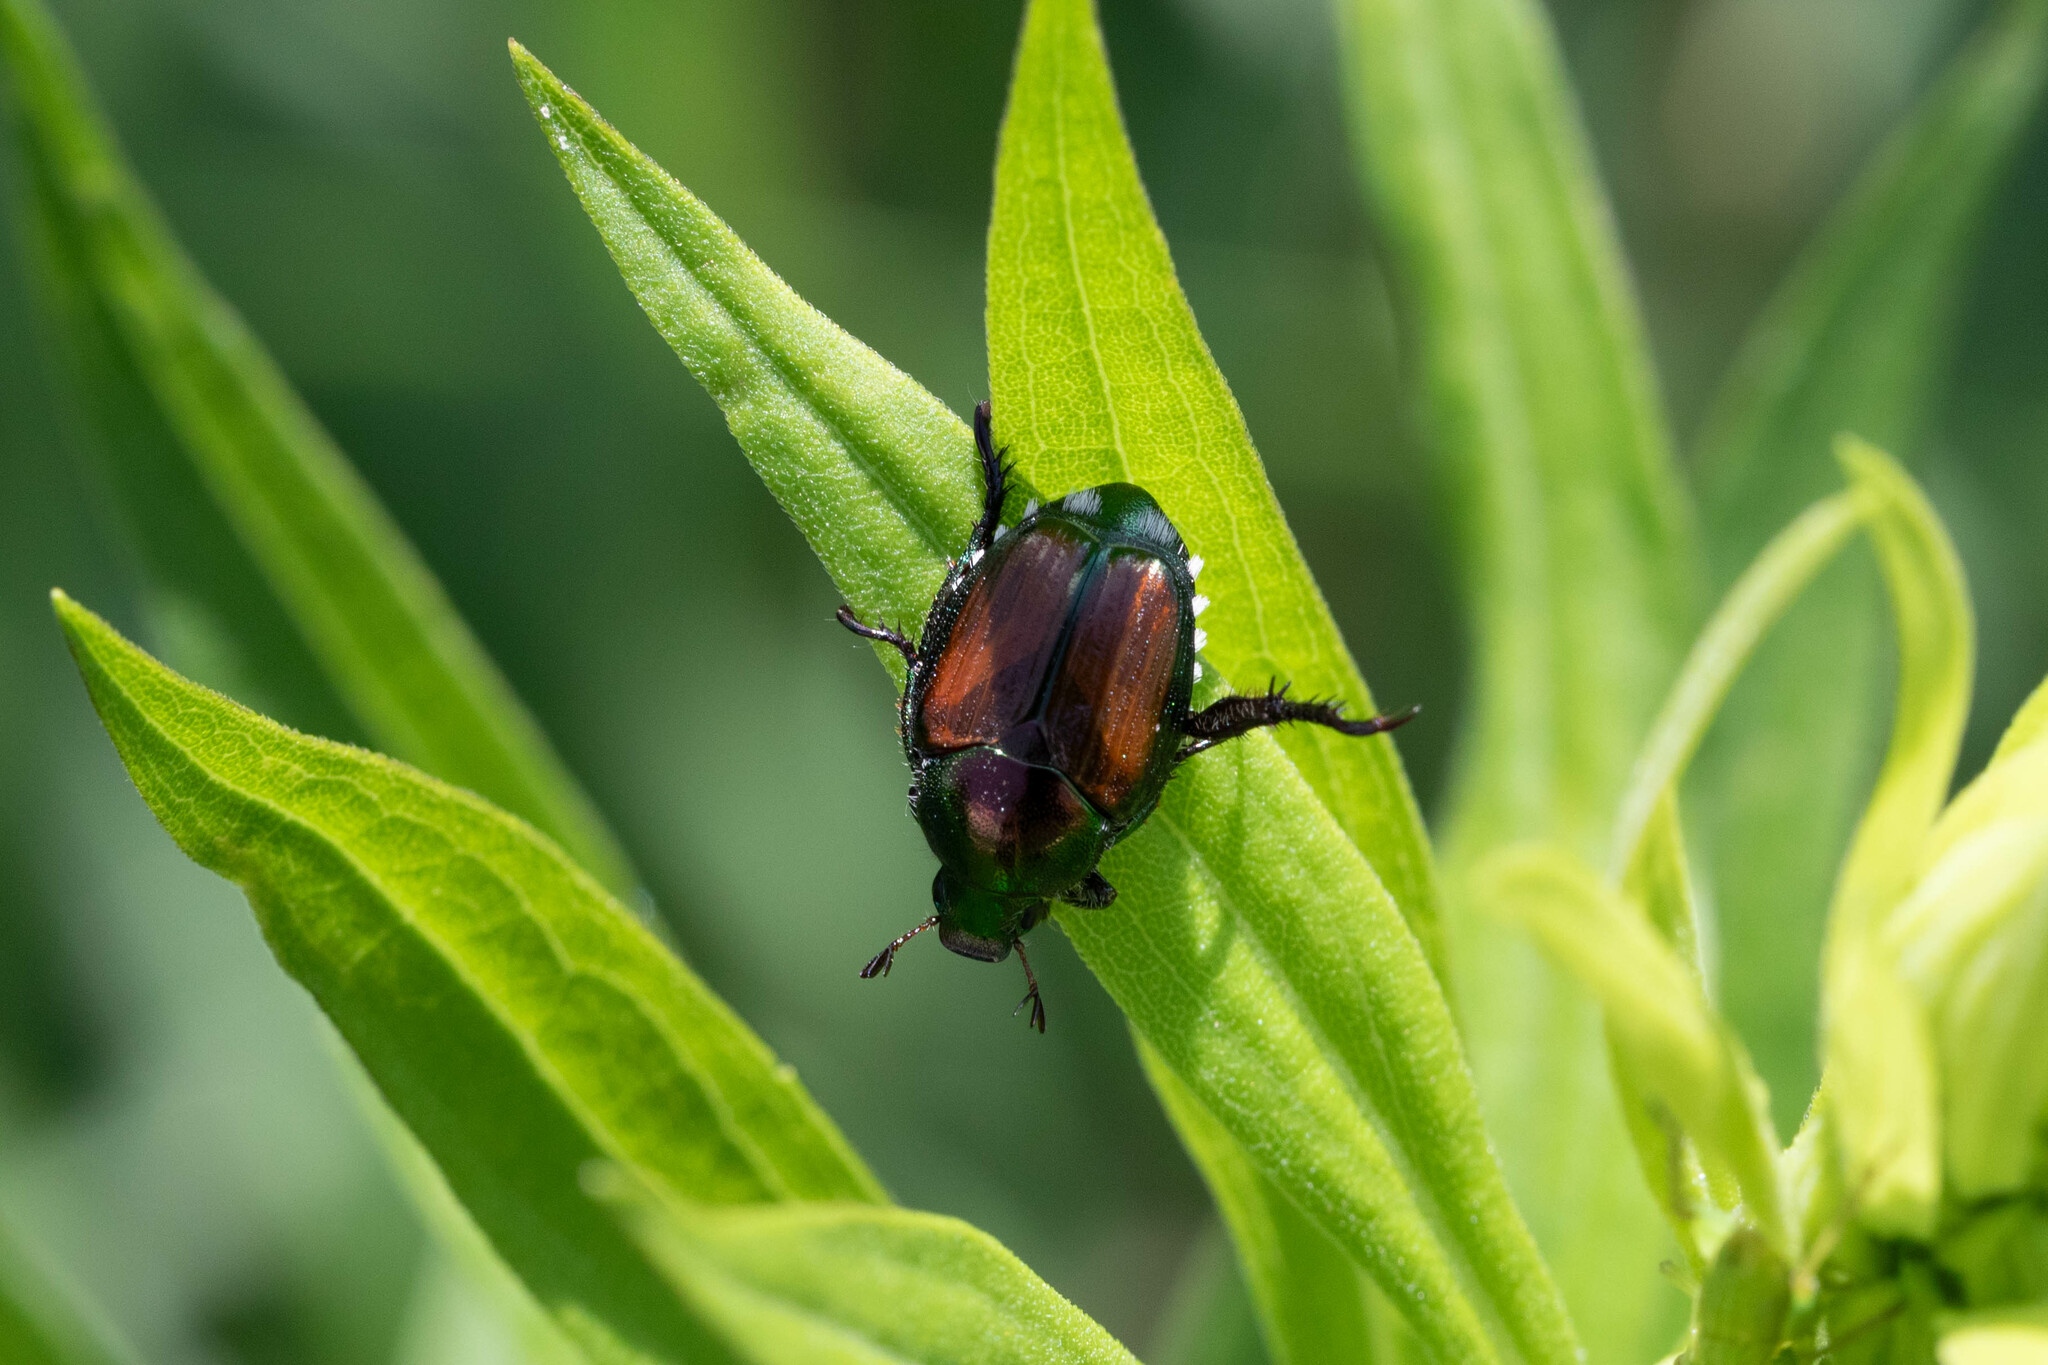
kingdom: Animalia
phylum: Arthropoda
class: Insecta
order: Coleoptera
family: Scarabaeidae
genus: Popillia
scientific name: Popillia japonica
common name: Japanese beetle
